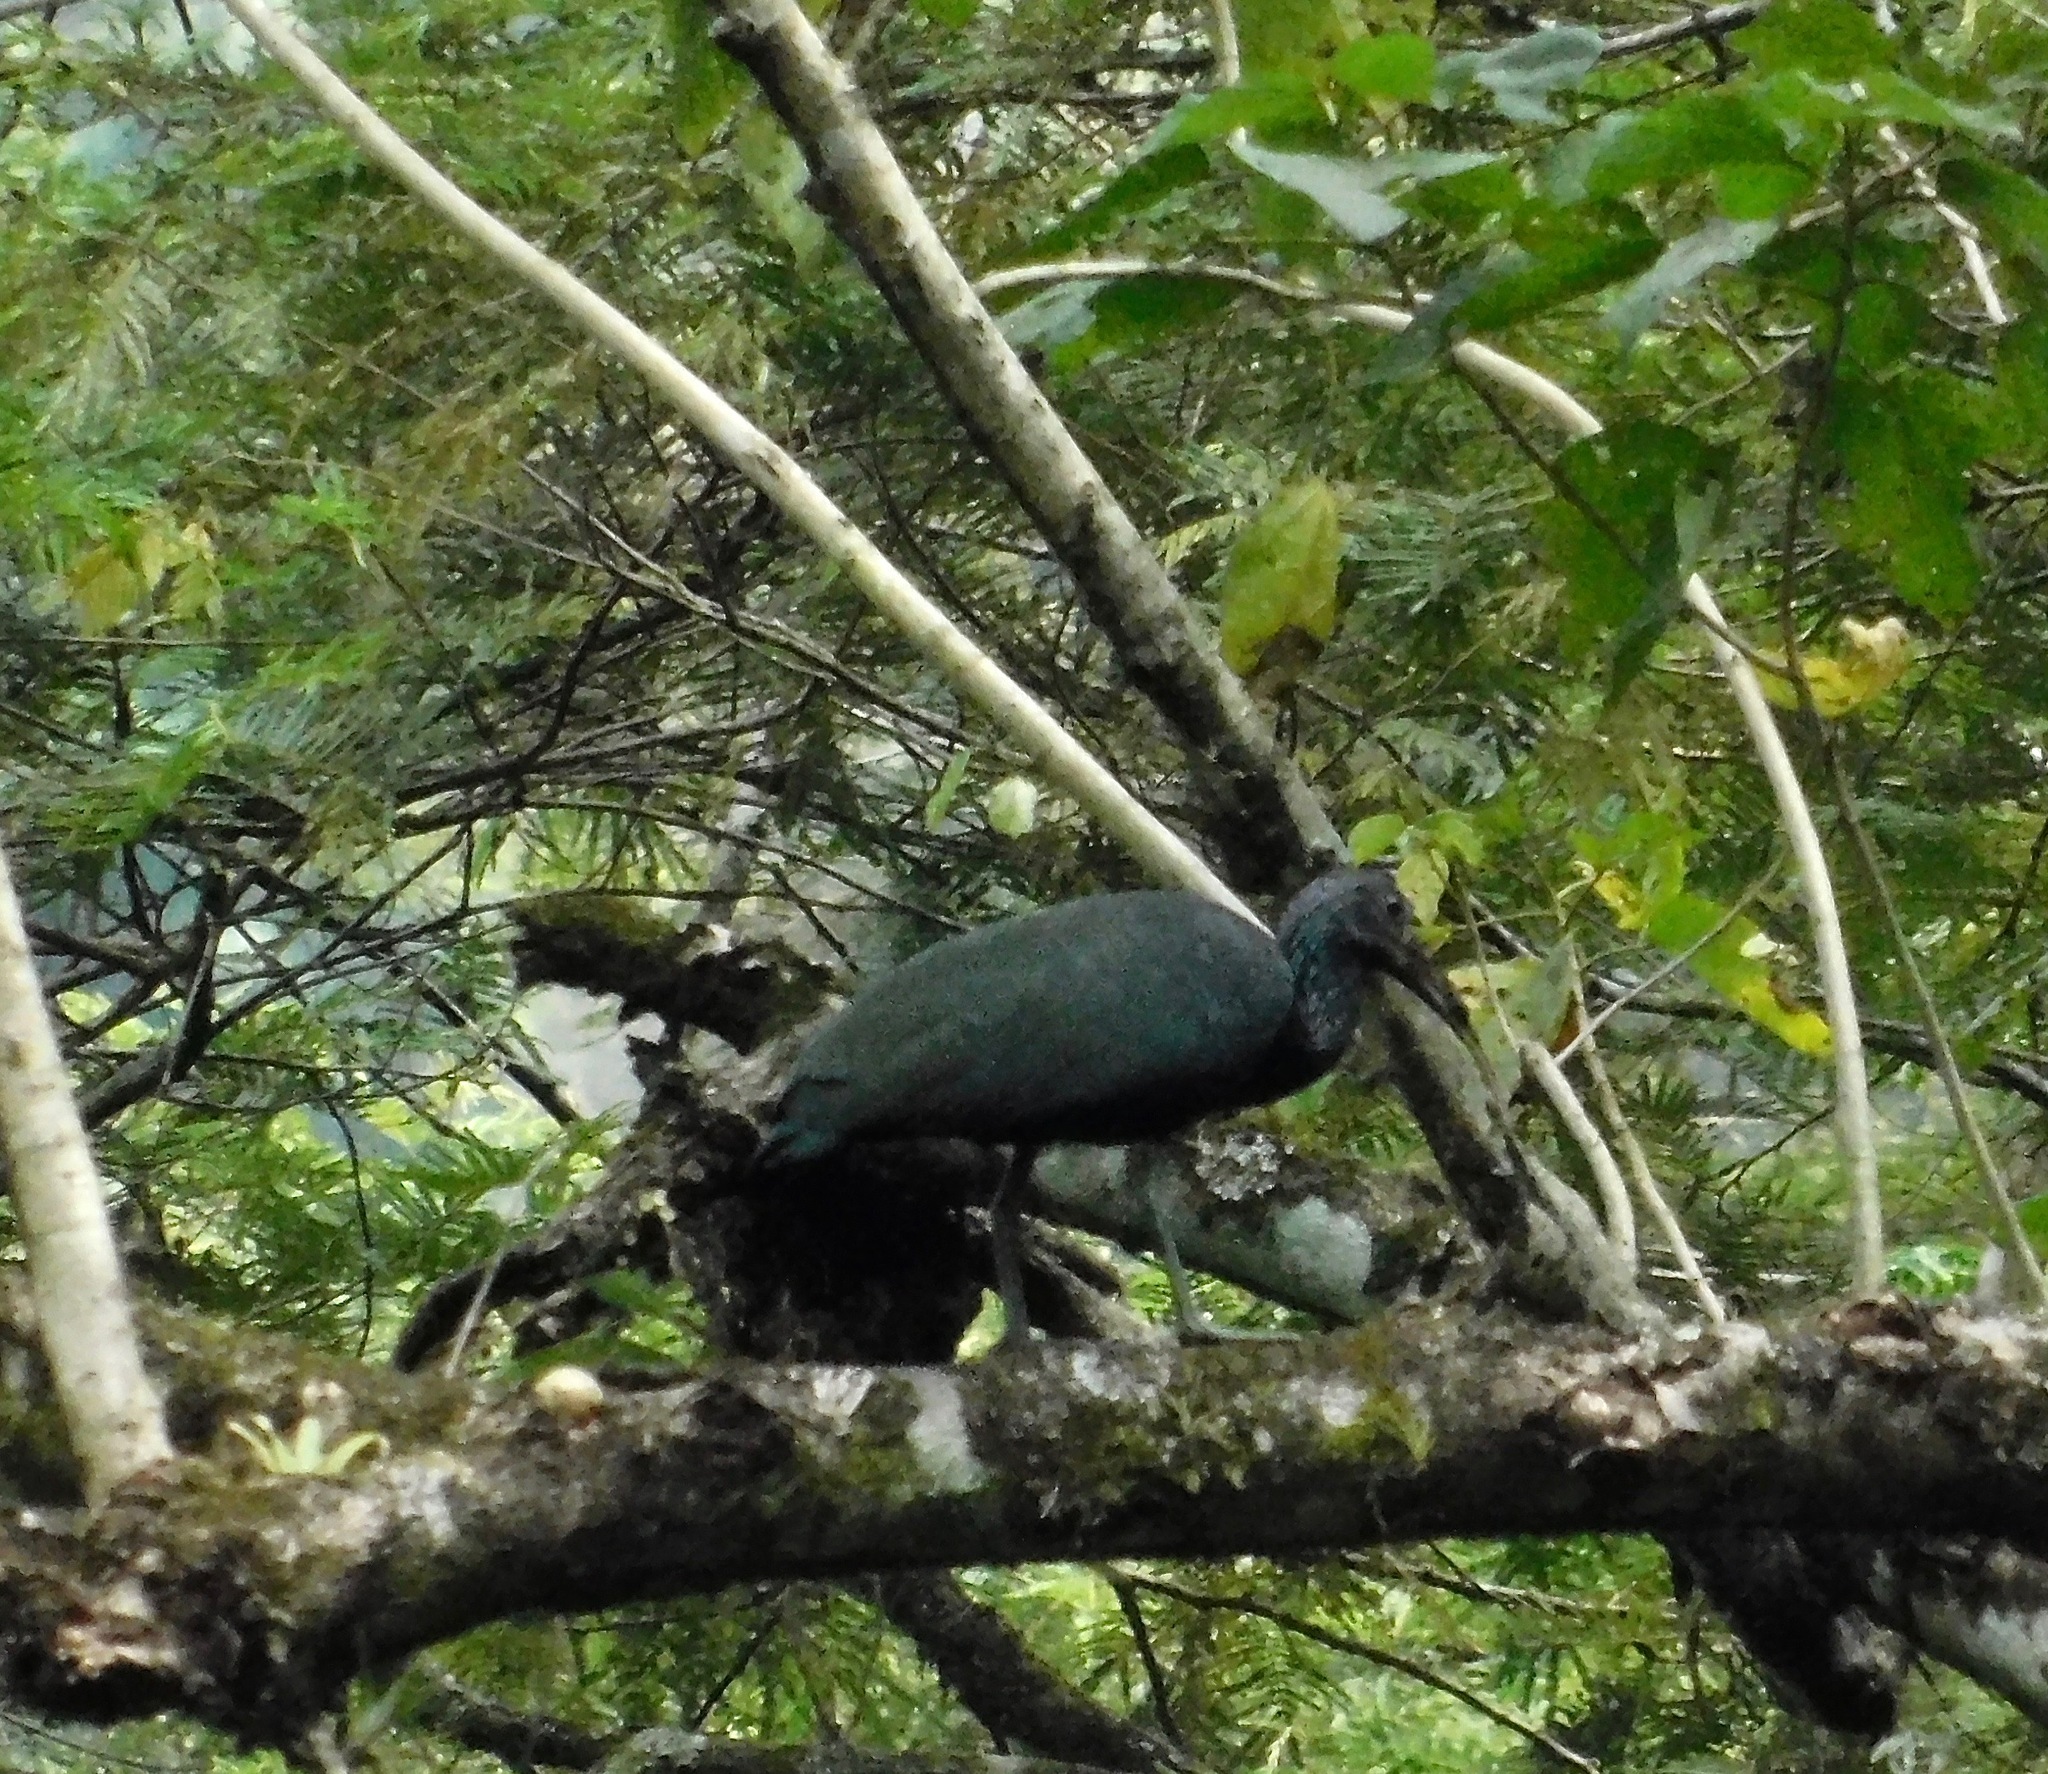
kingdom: Animalia
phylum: Chordata
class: Aves
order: Pelecaniformes
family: Threskiornithidae
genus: Mesembrinibis
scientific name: Mesembrinibis cayennensis
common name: Green ibis
